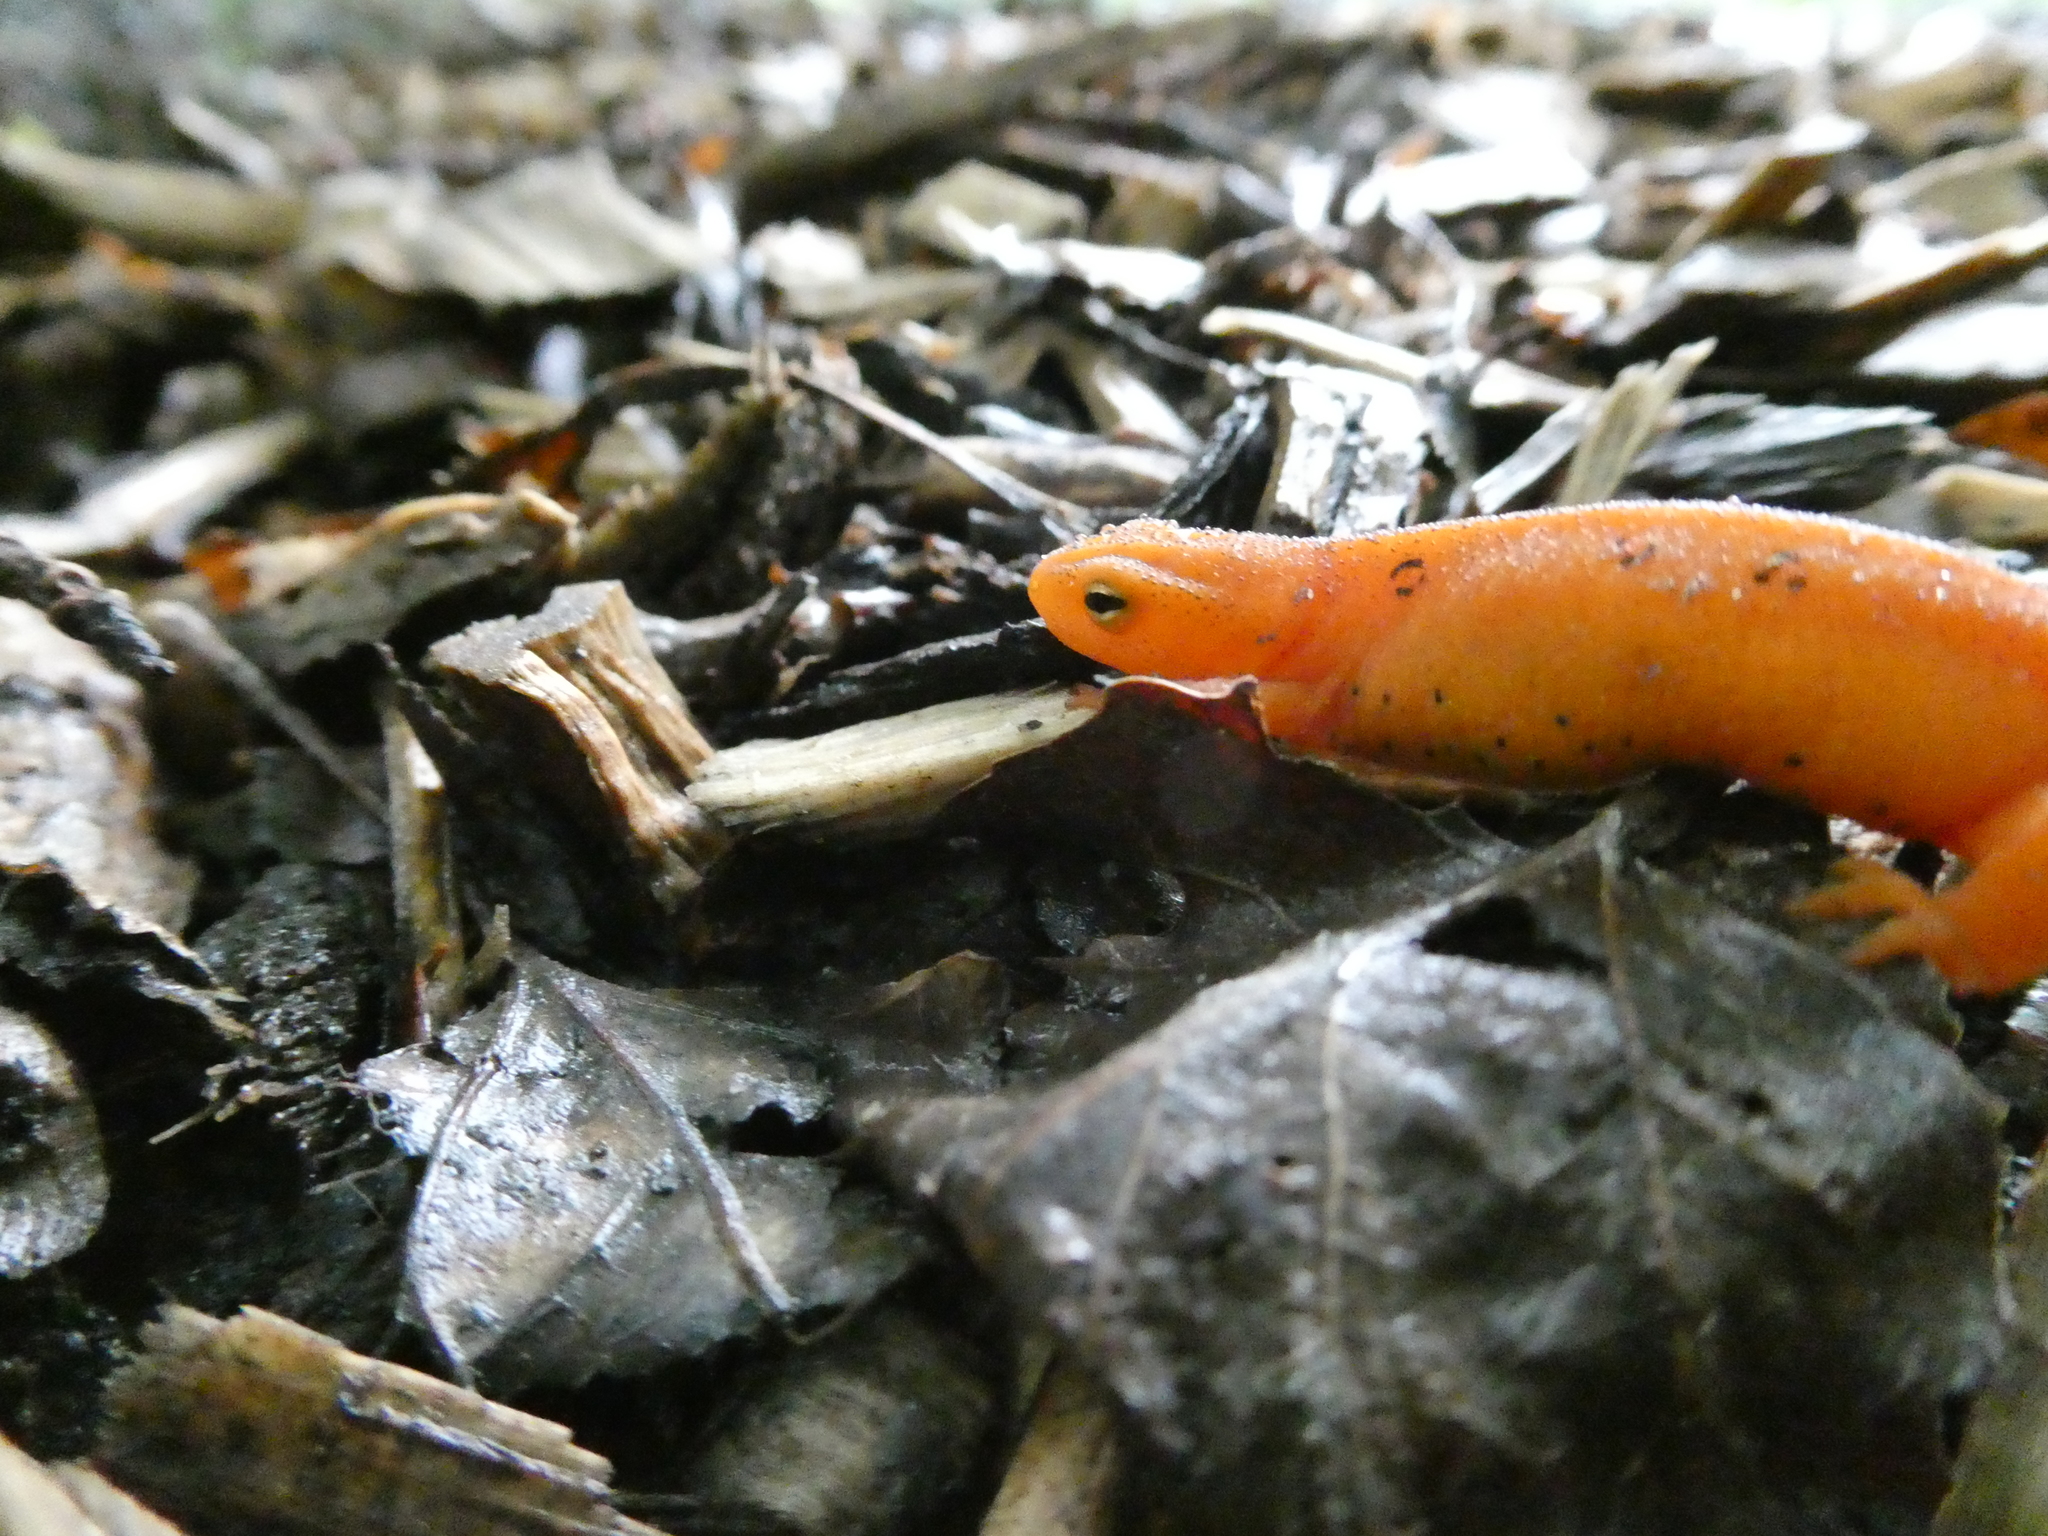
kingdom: Animalia
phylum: Chordata
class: Amphibia
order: Caudata
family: Salamandridae
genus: Notophthalmus
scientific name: Notophthalmus viridescens
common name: Eastern newt
